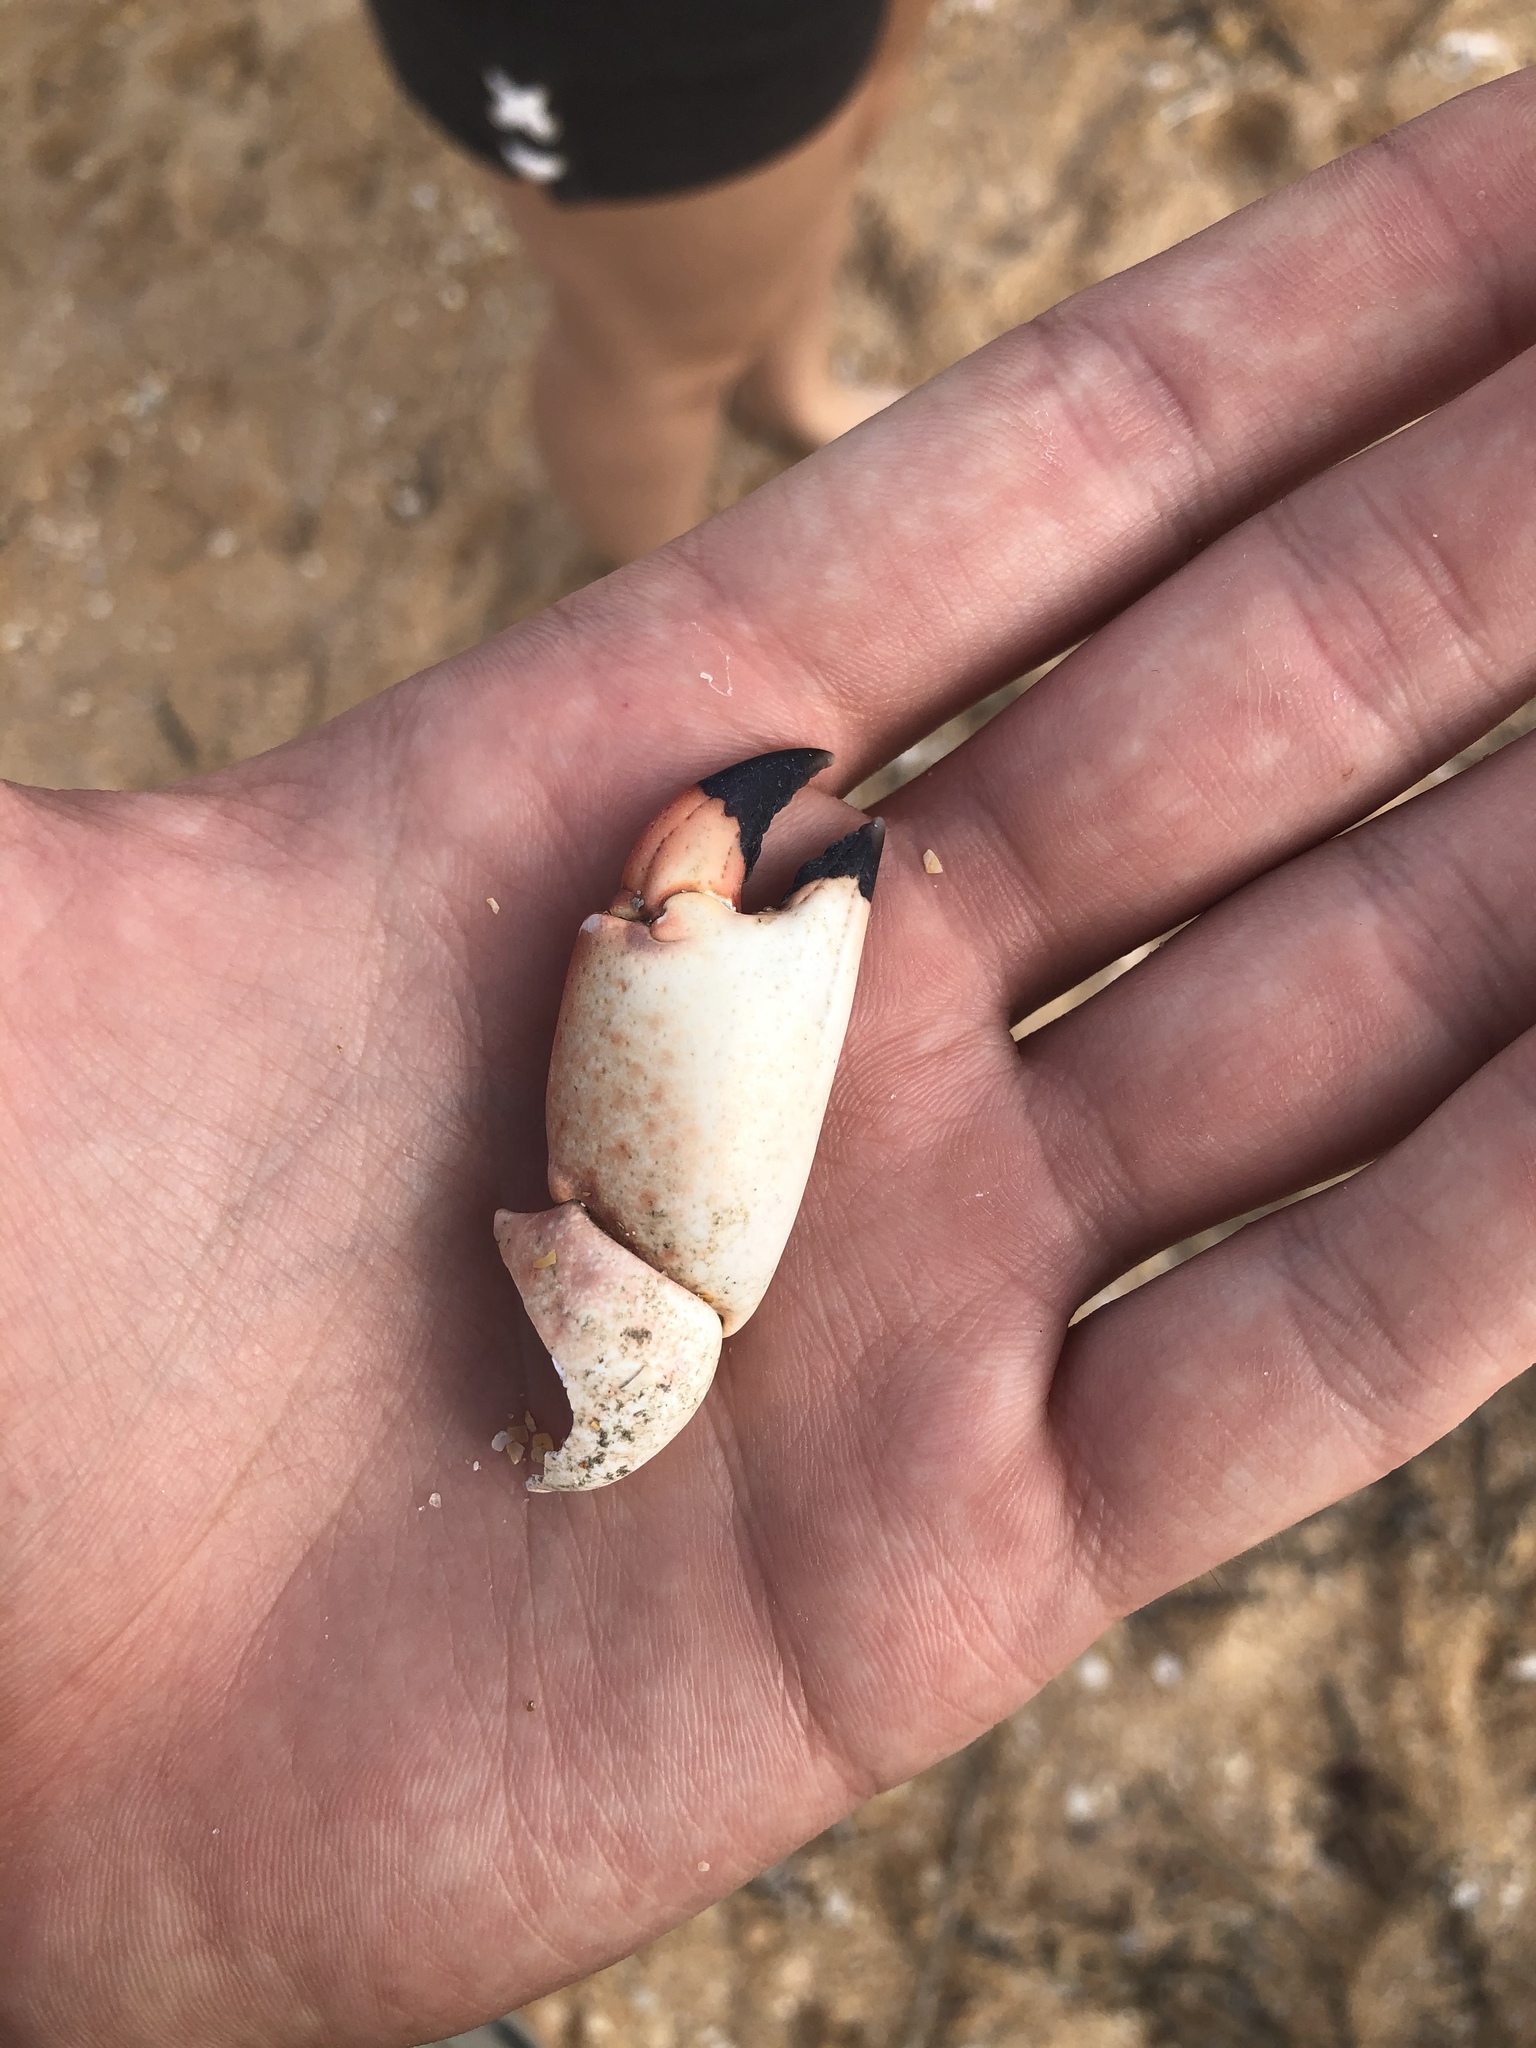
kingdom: Animalia
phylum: Arthropoda
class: Malacostraca
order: Decapoda
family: Menippidae
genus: Menippe
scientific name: Menippe mercenaria
